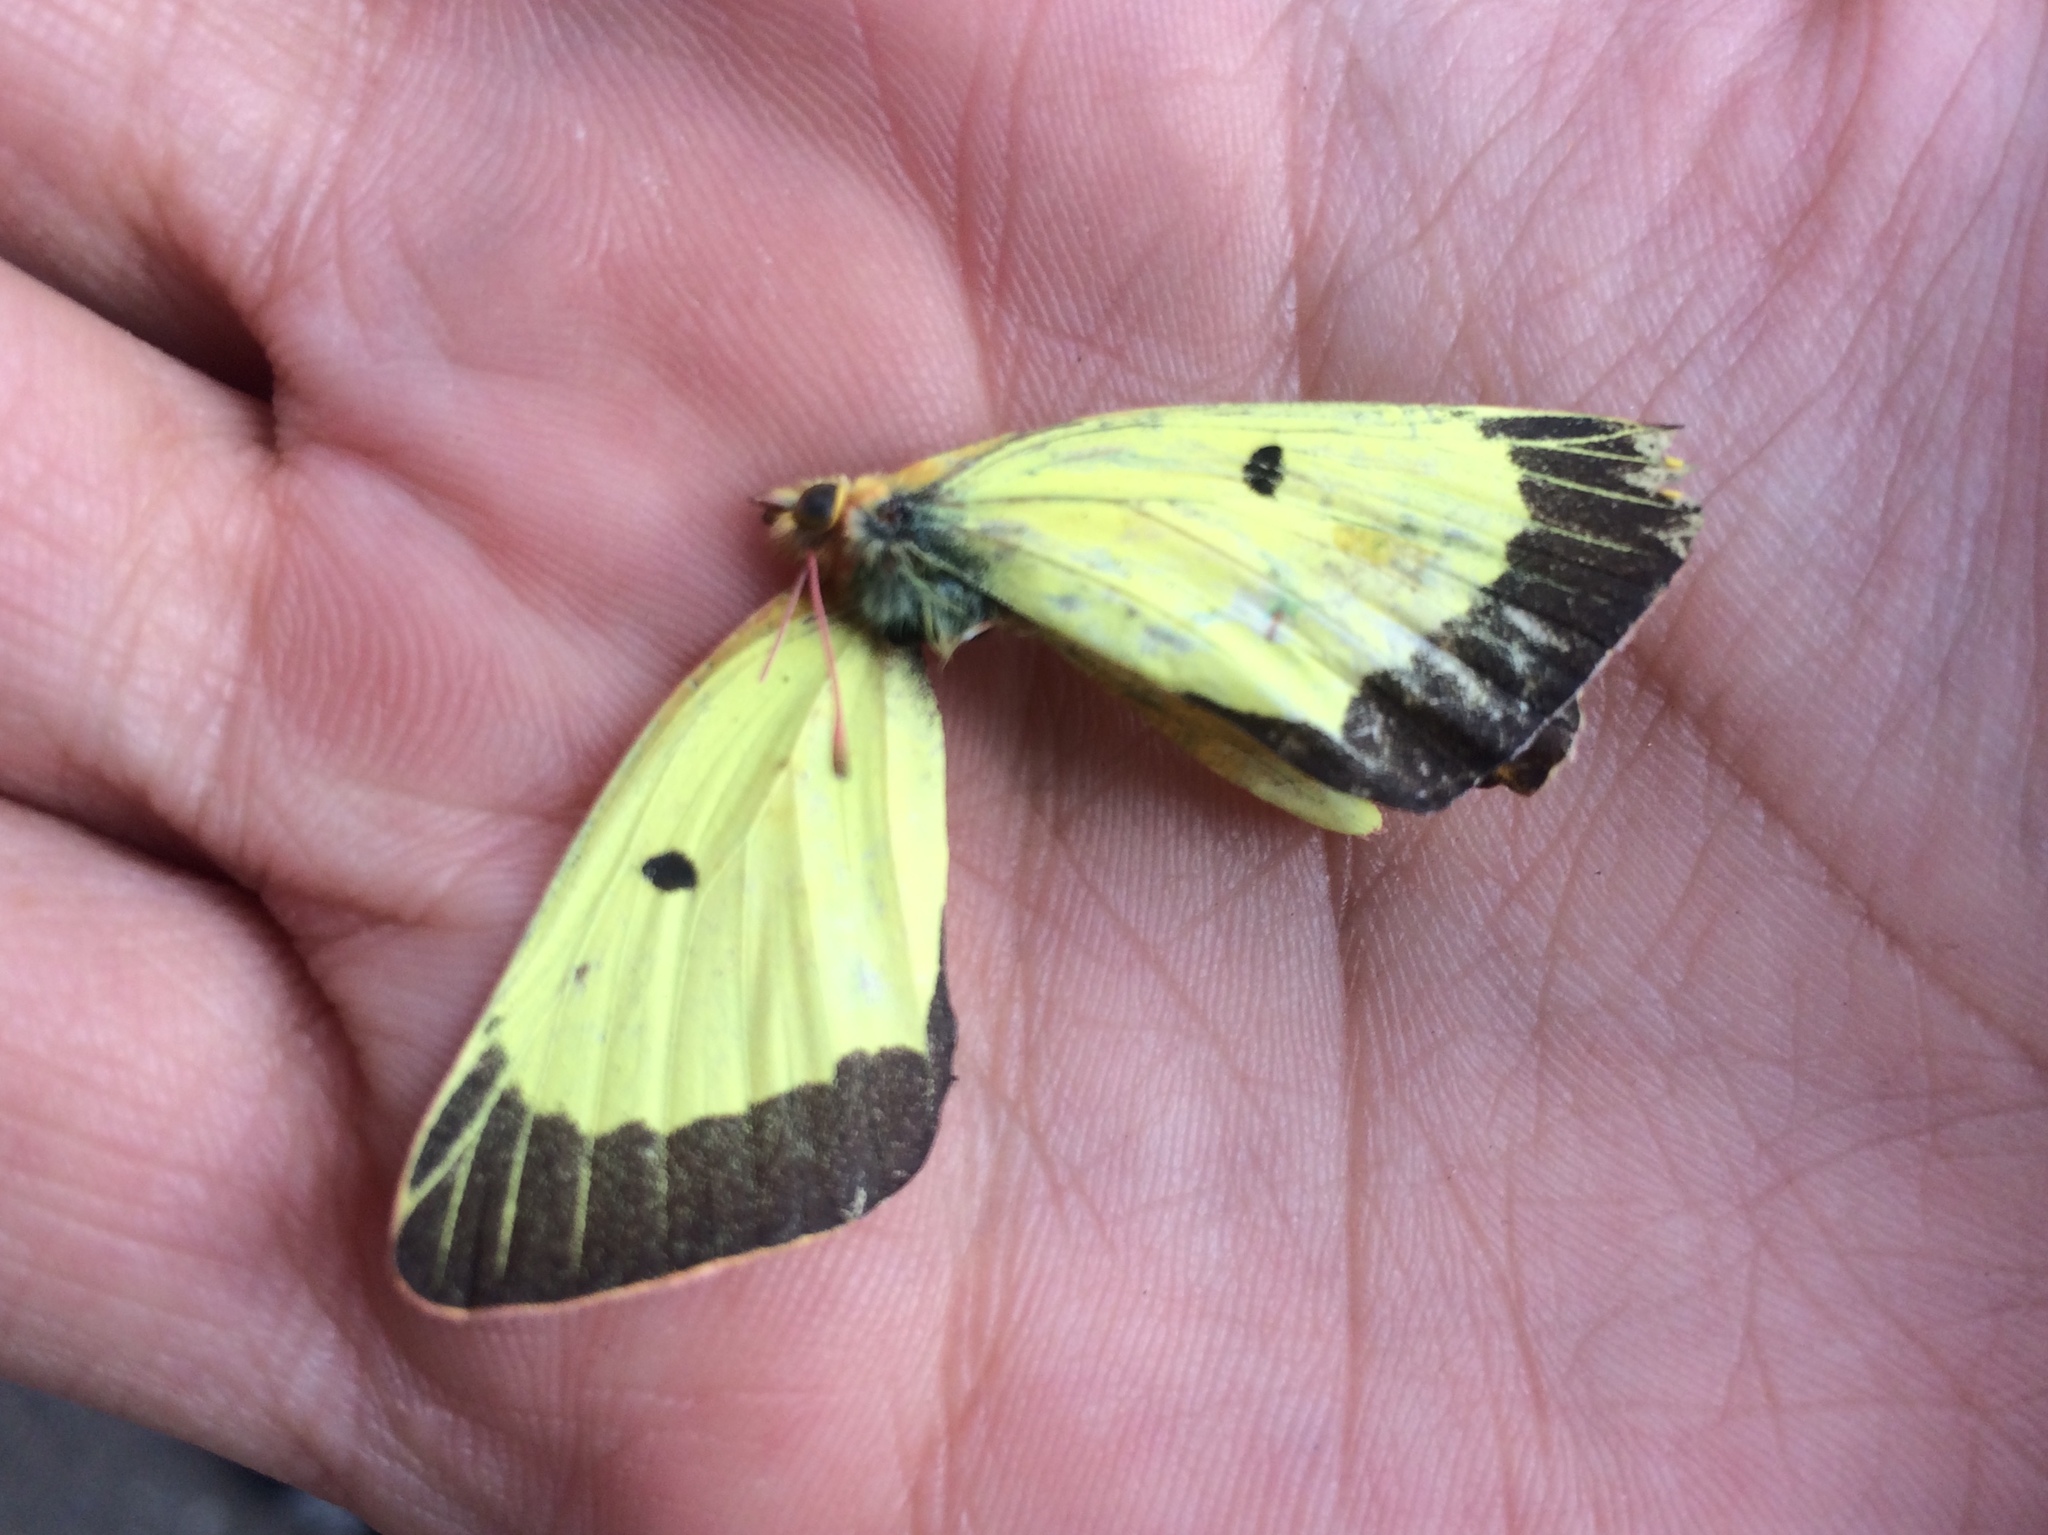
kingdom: Animalia
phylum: Arthropoda
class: Insecta
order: Lepidoptera
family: Pieridae
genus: Colias
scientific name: Colias philodice
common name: Clouded sulphur
